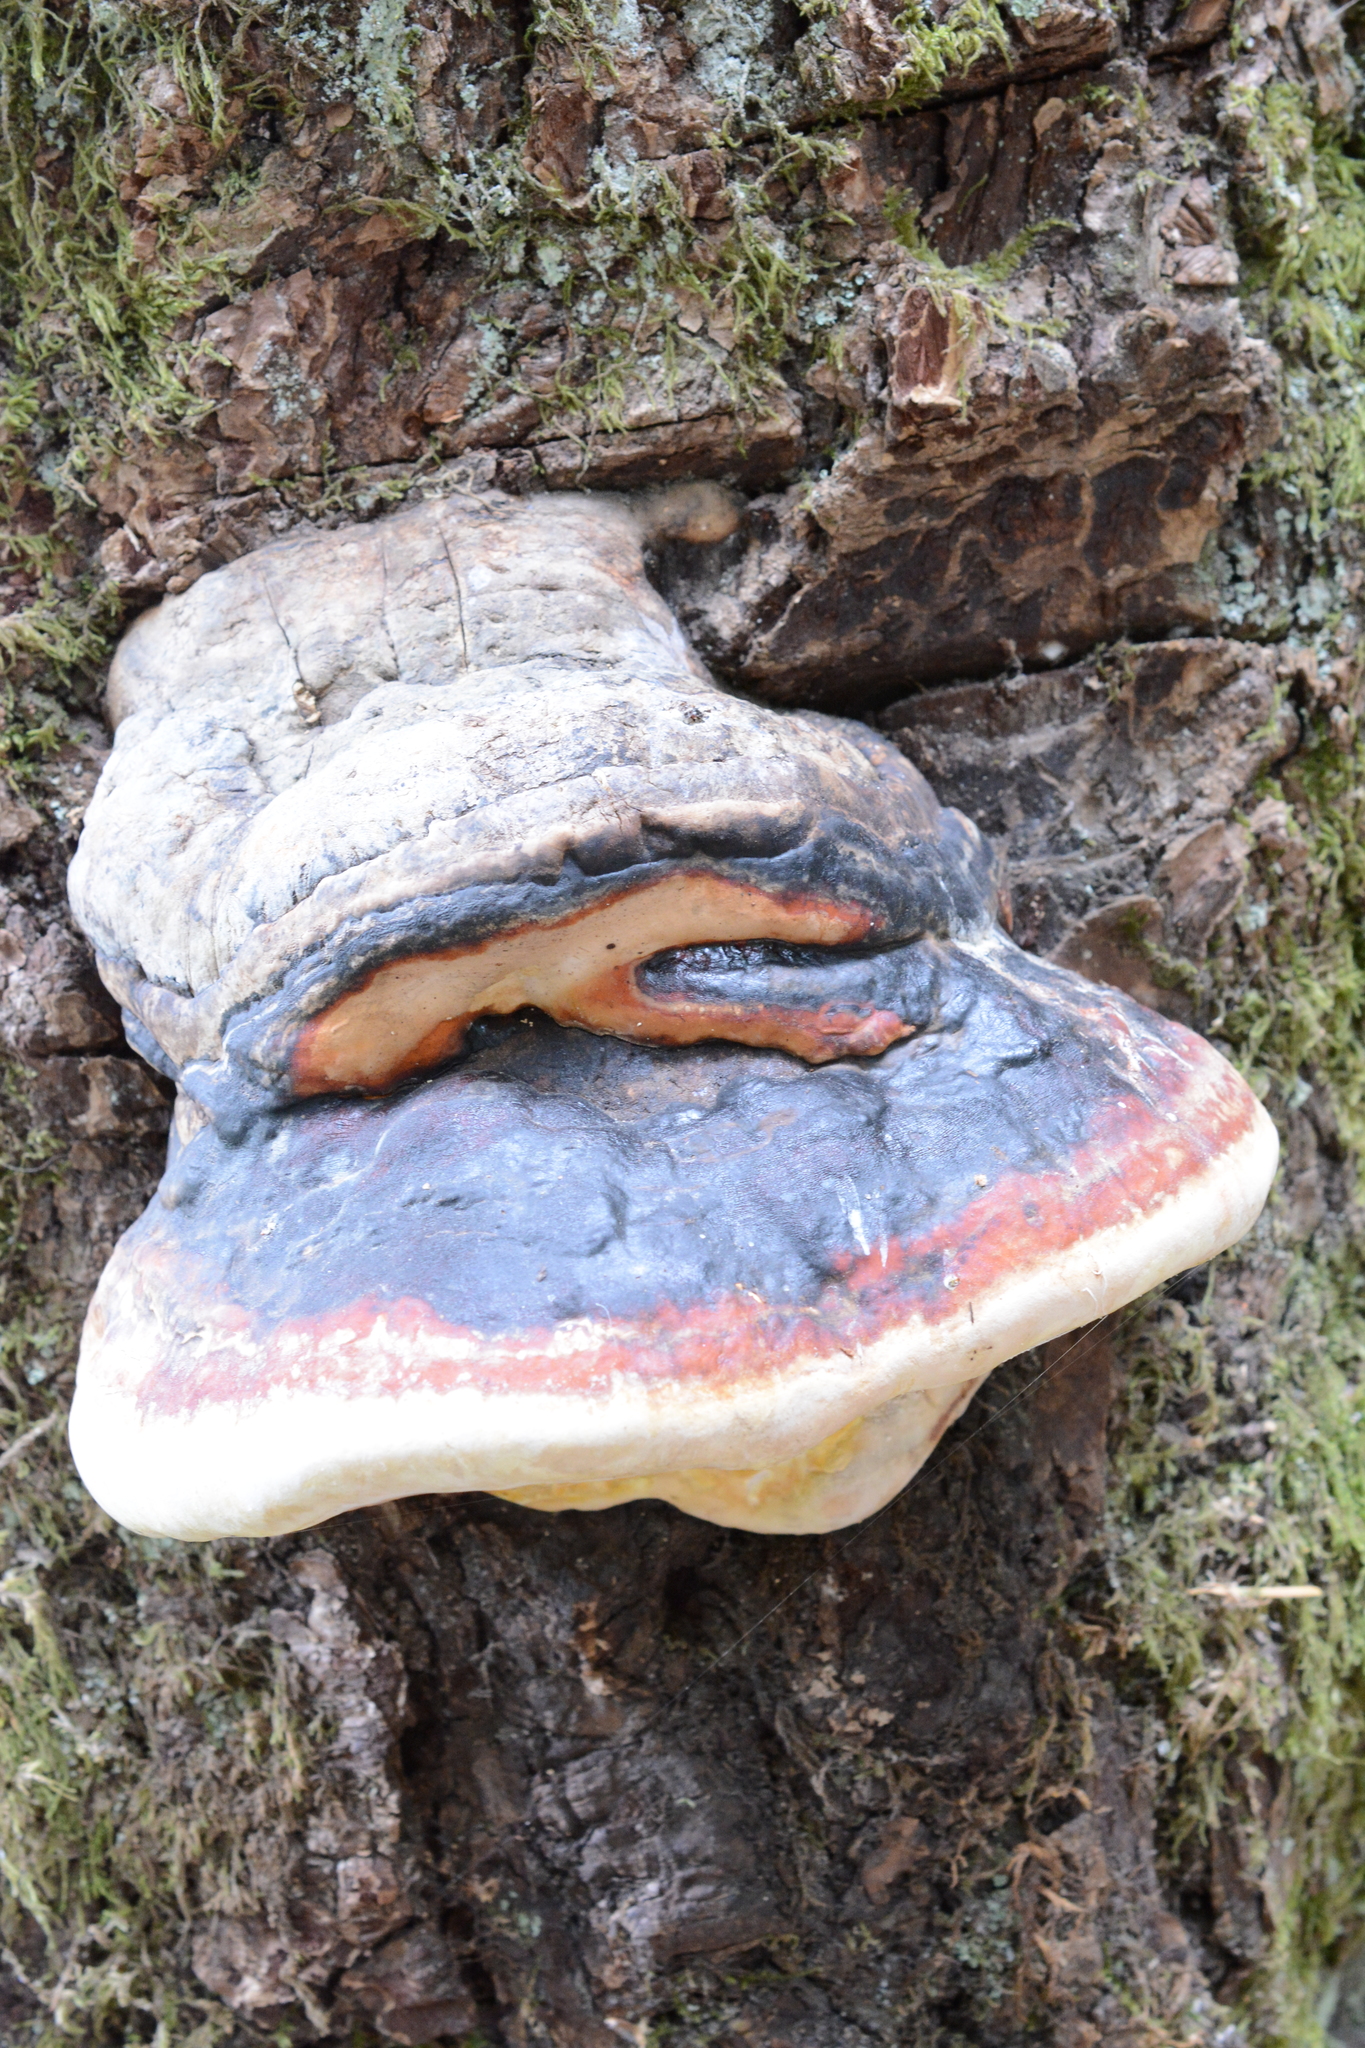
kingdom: Fungi
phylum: Basidiomycota
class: Agaricomycetes
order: Polyporales
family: Fomitopsidaceae
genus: Fomitopsis
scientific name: Fomitopsis mounceae
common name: Northern red belt
